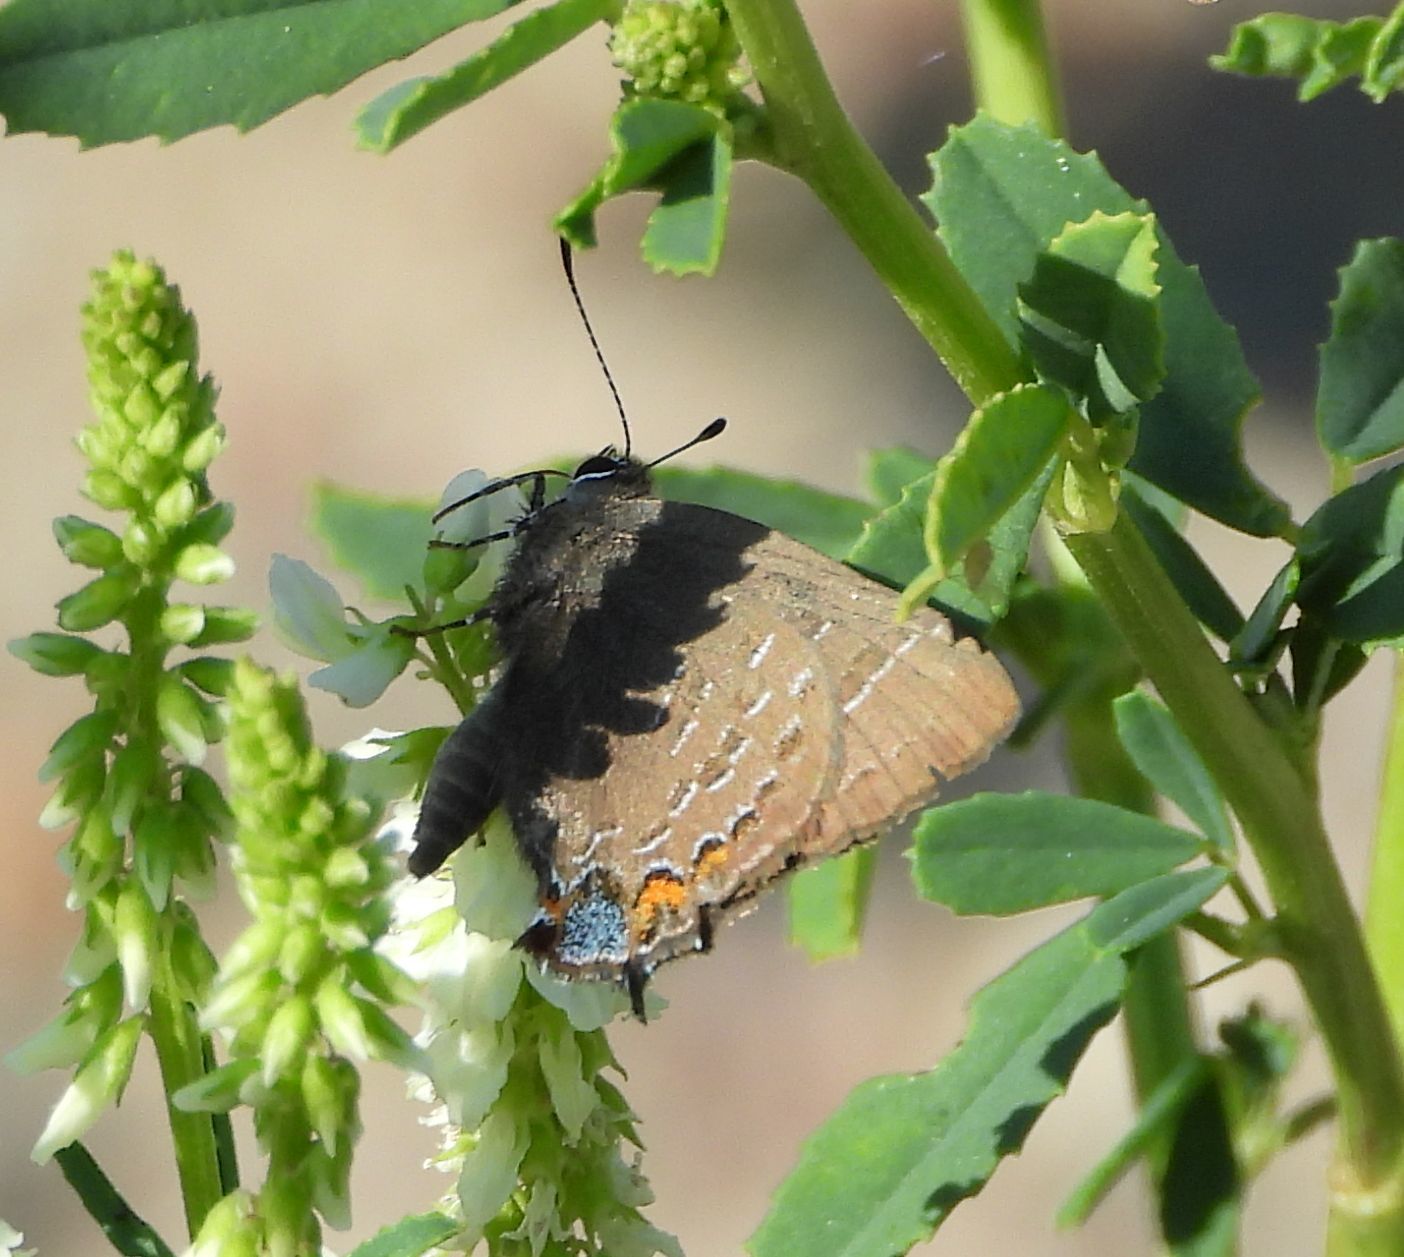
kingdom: Animalia
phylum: Arthropoda
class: Insecta
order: Lepidoptera
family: Lycaenidae
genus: Satyrium
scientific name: Satyrium calanus
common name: Banded hairstreak
